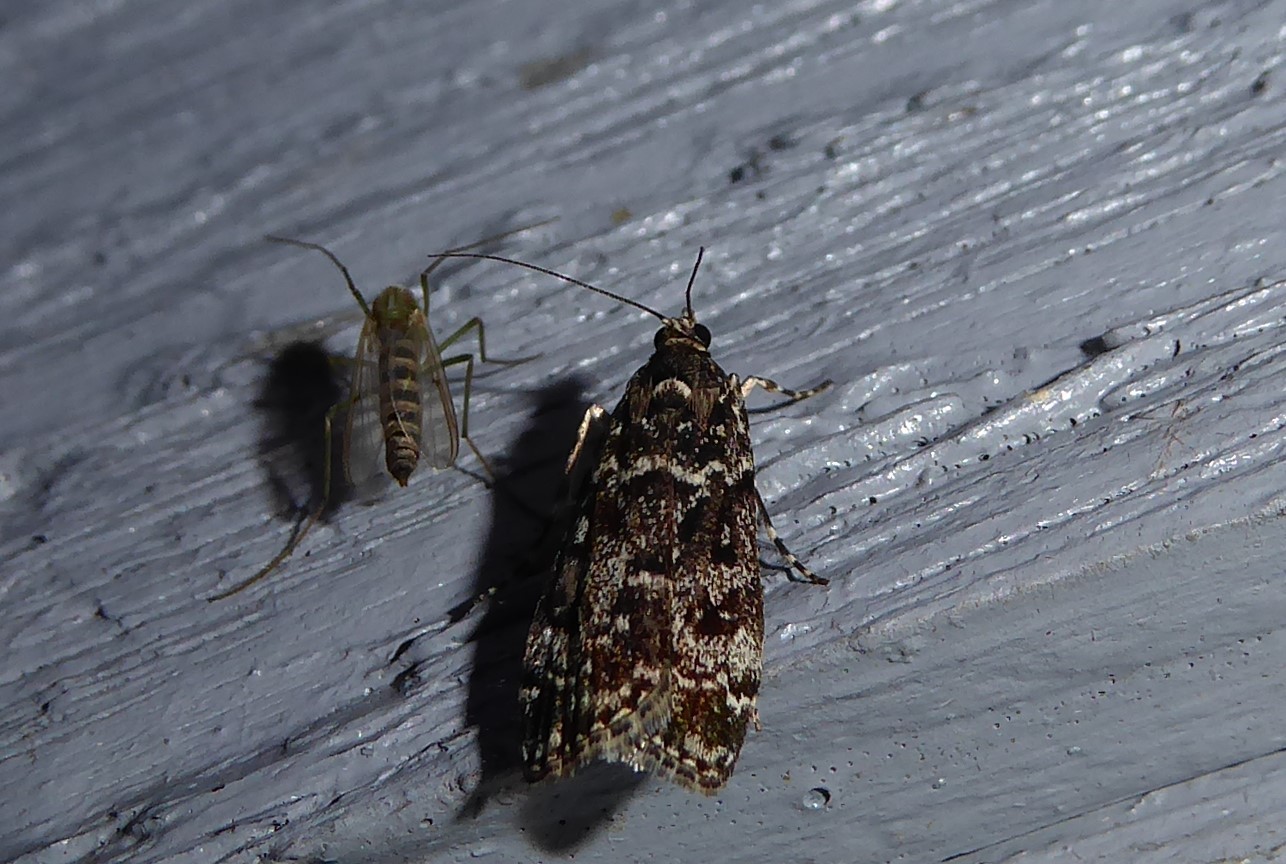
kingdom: Animalia
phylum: Arthropoda
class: Insecta
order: Lepidoptera
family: Crambidae
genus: Eudonia
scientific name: Eudonia philerga
